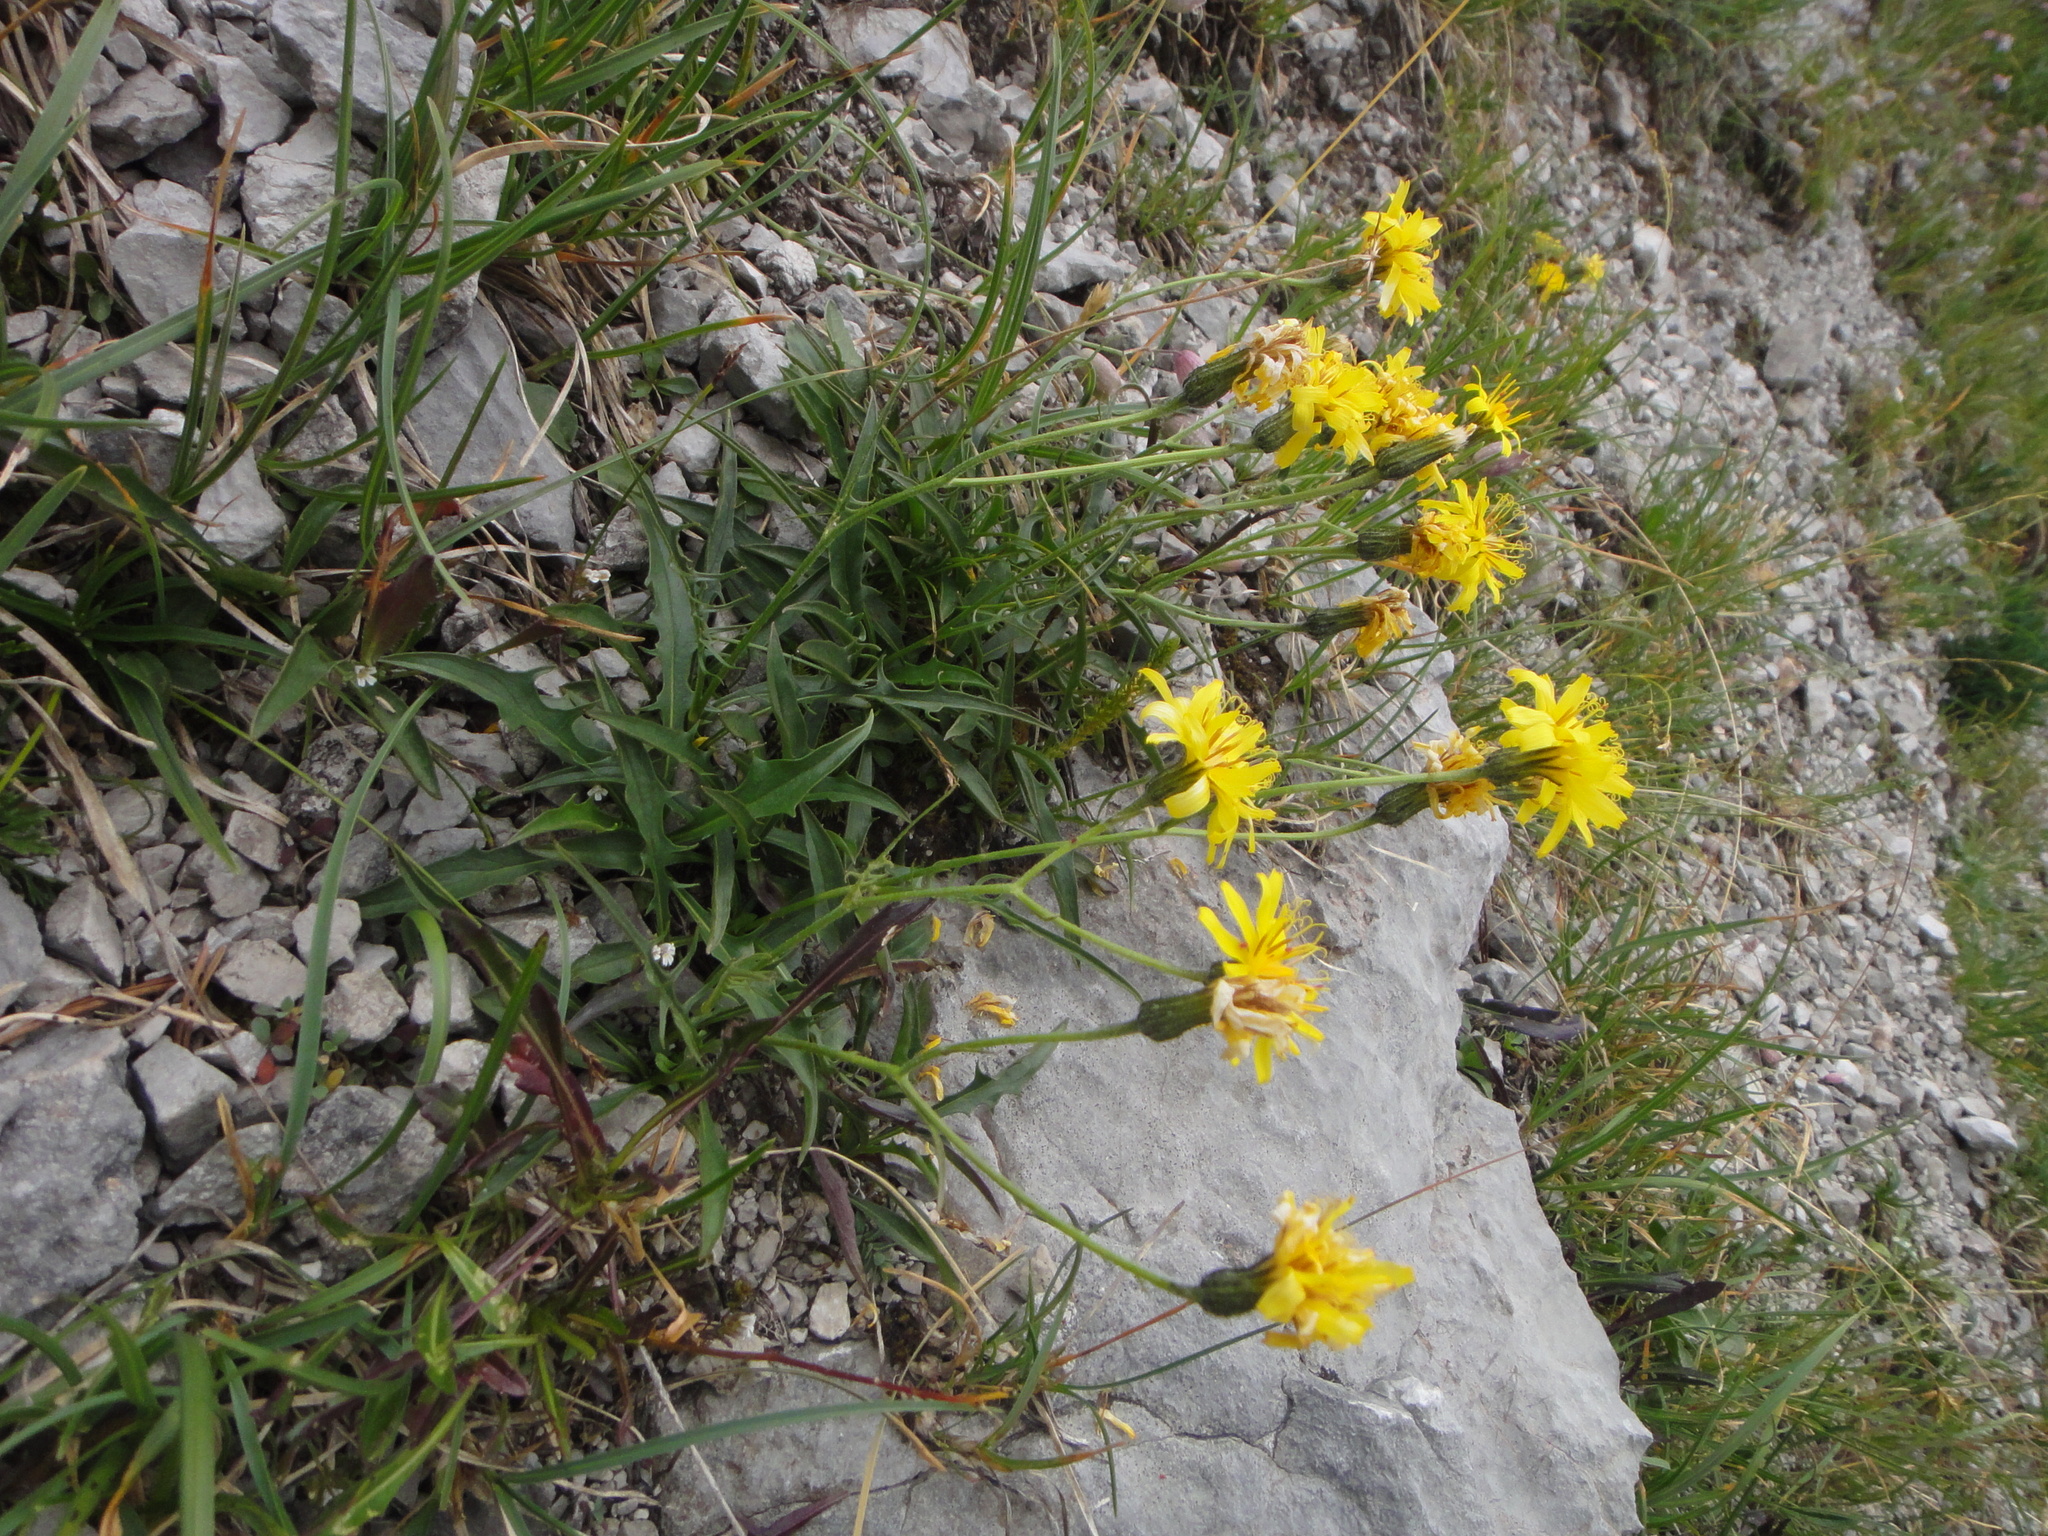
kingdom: Plantae
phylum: Tracheophyta
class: Magnoliopsida
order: Asterales
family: Asteraceae
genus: Crepis
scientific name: Crepis jacquinii
